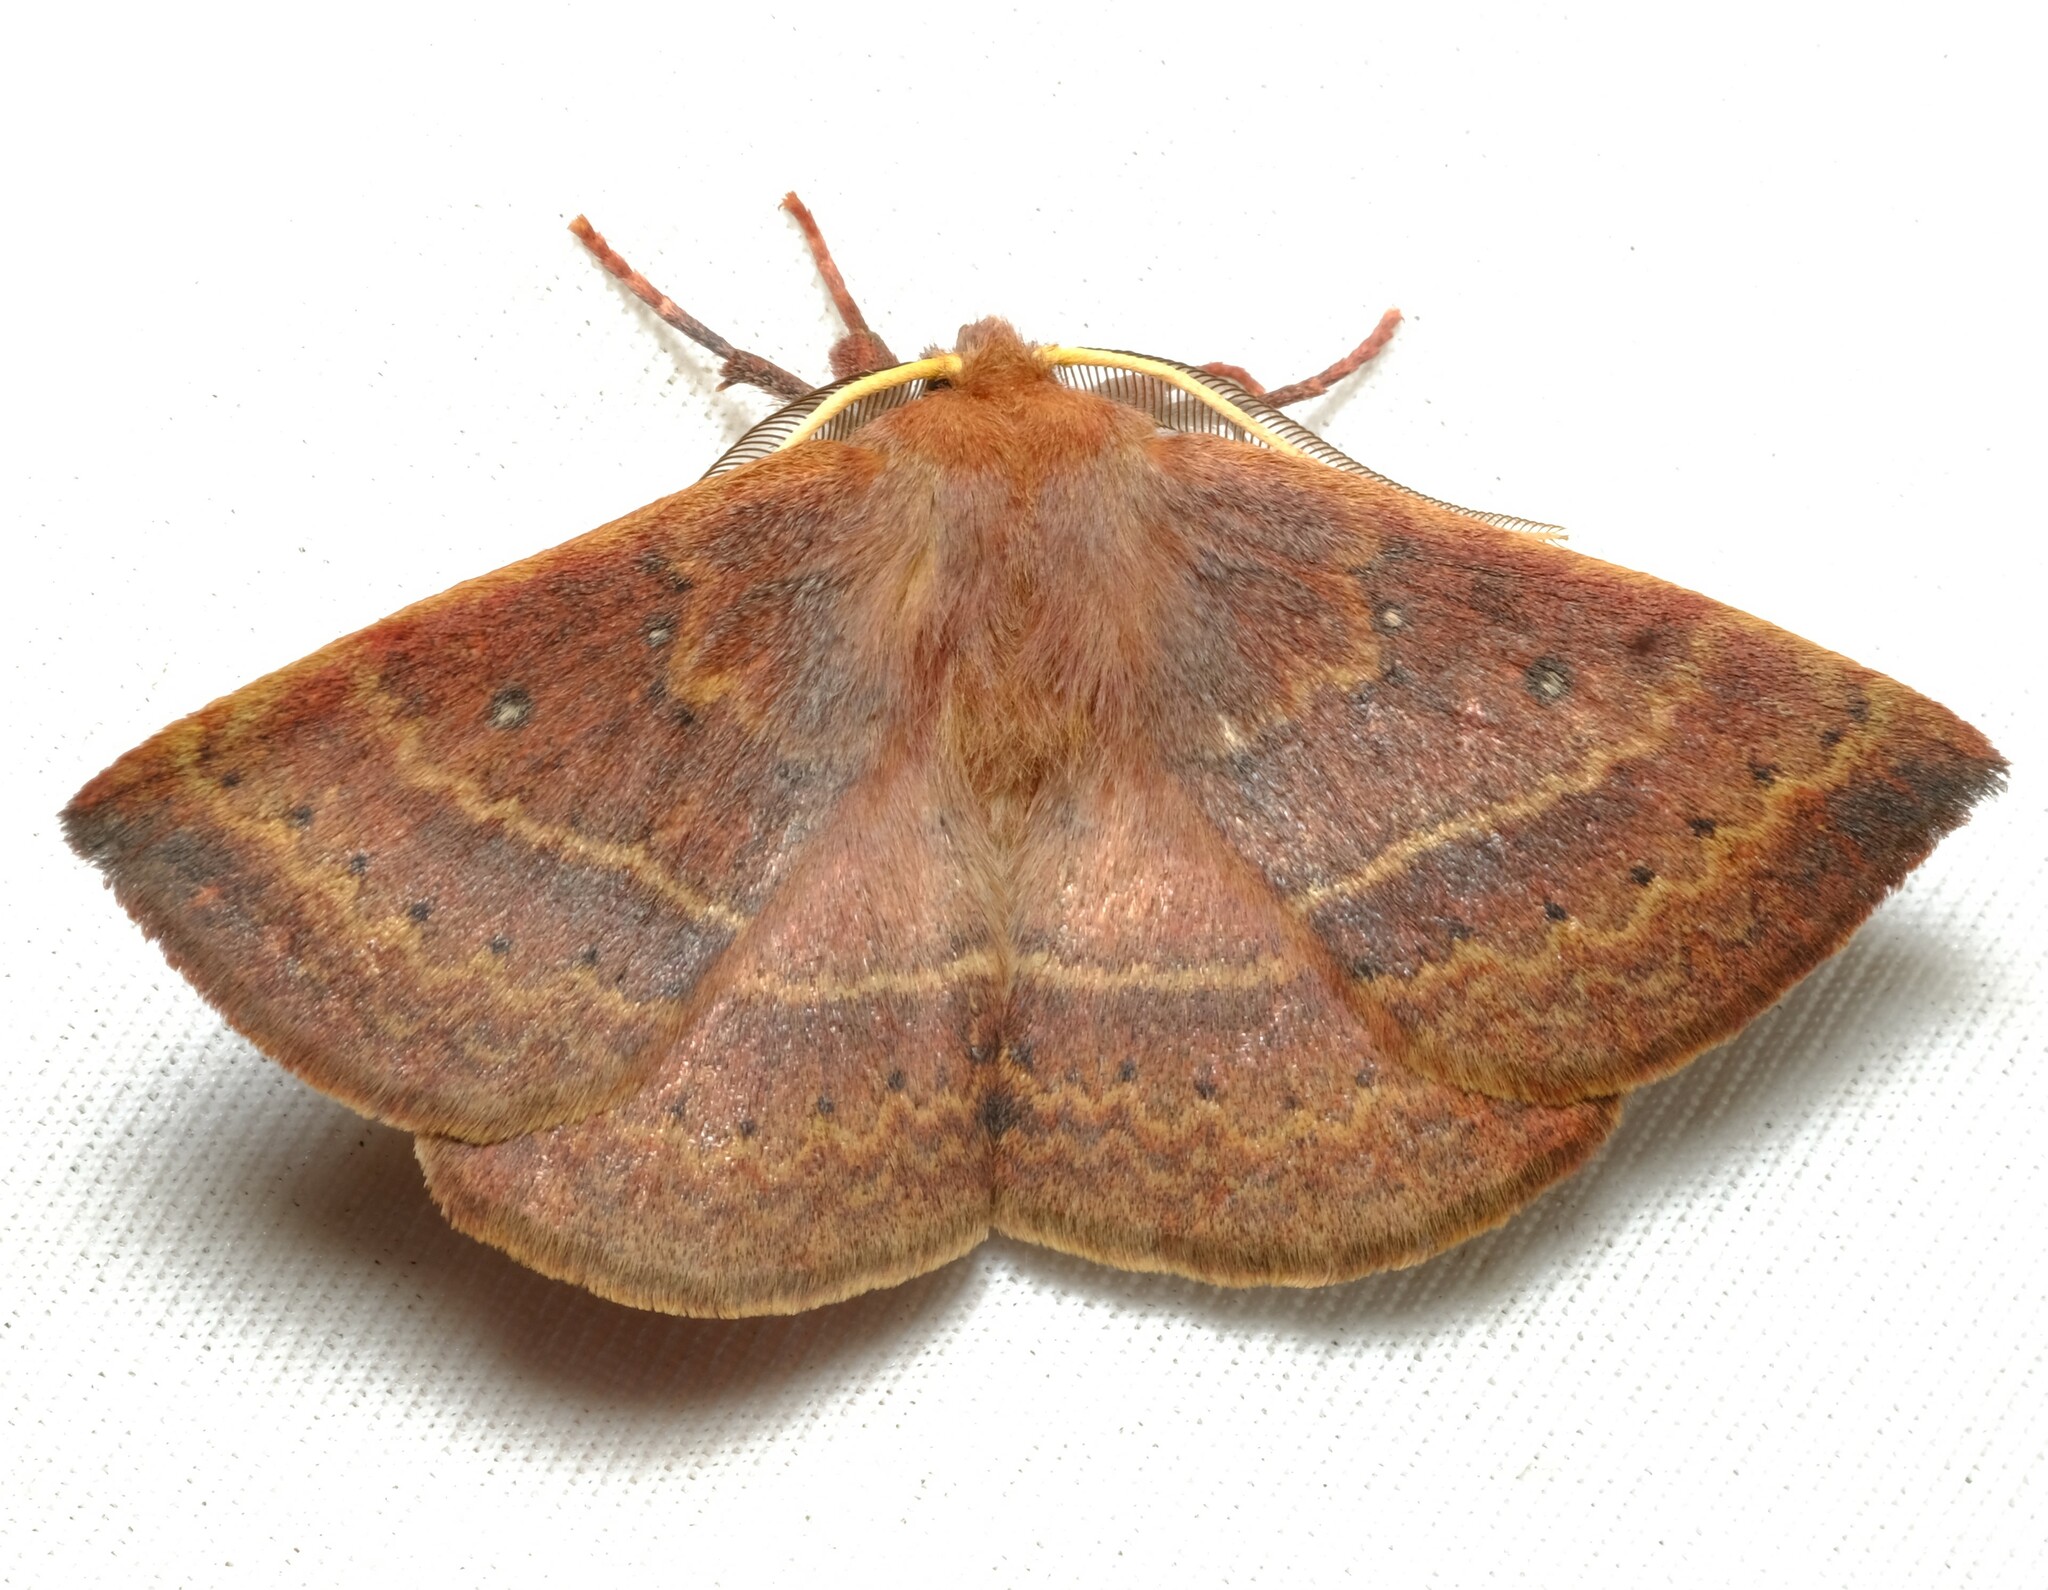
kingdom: Animalia
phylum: Arthropoda
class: Insecta
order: Lepidoptera
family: Anthelidae
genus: Anthela
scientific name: Anthela repleta
